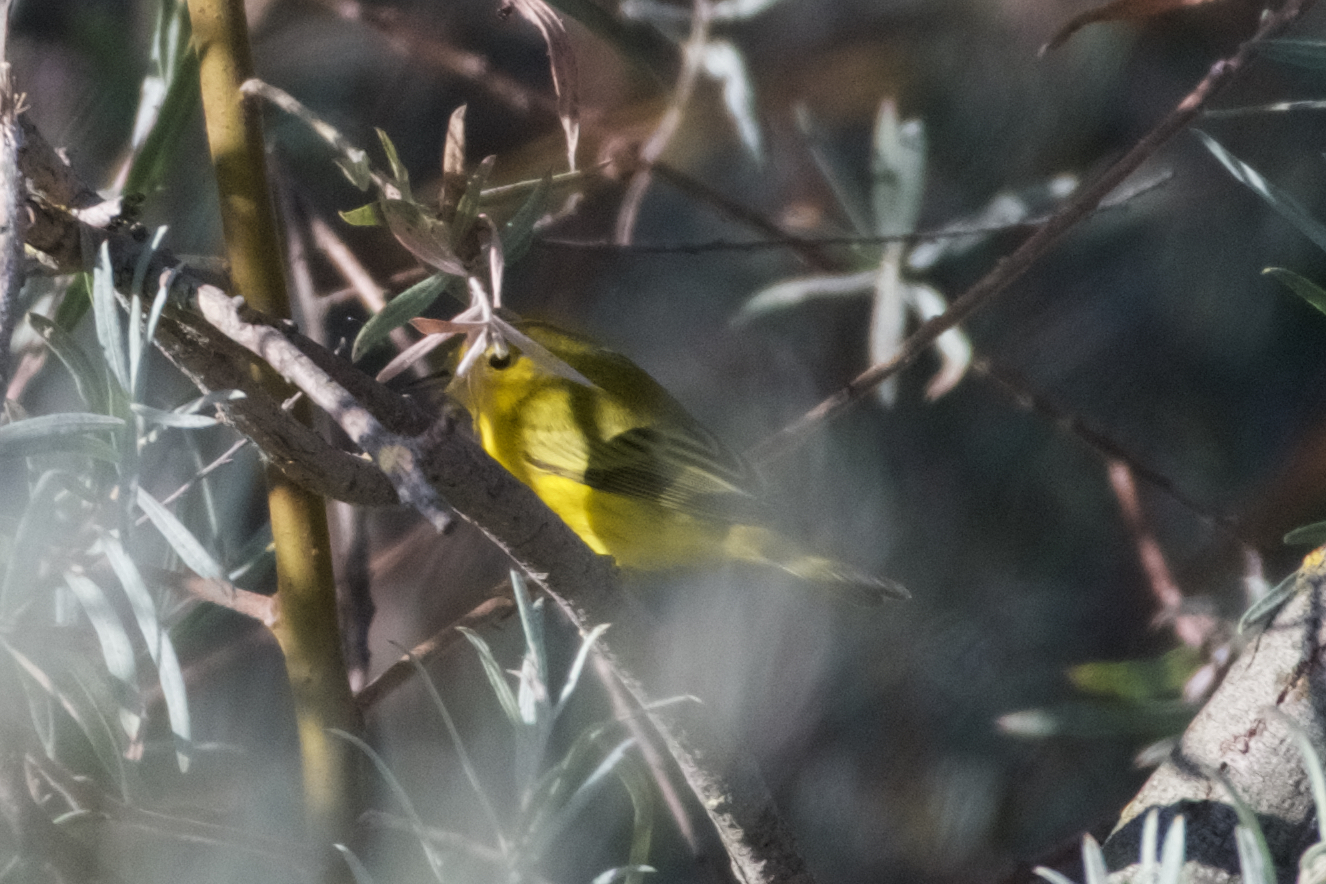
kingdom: Animalia
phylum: Chordata
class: Aves
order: Passeriformes
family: Parulidae
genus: Setophaga
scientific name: Setophaga petechia
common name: Yellow warbler
